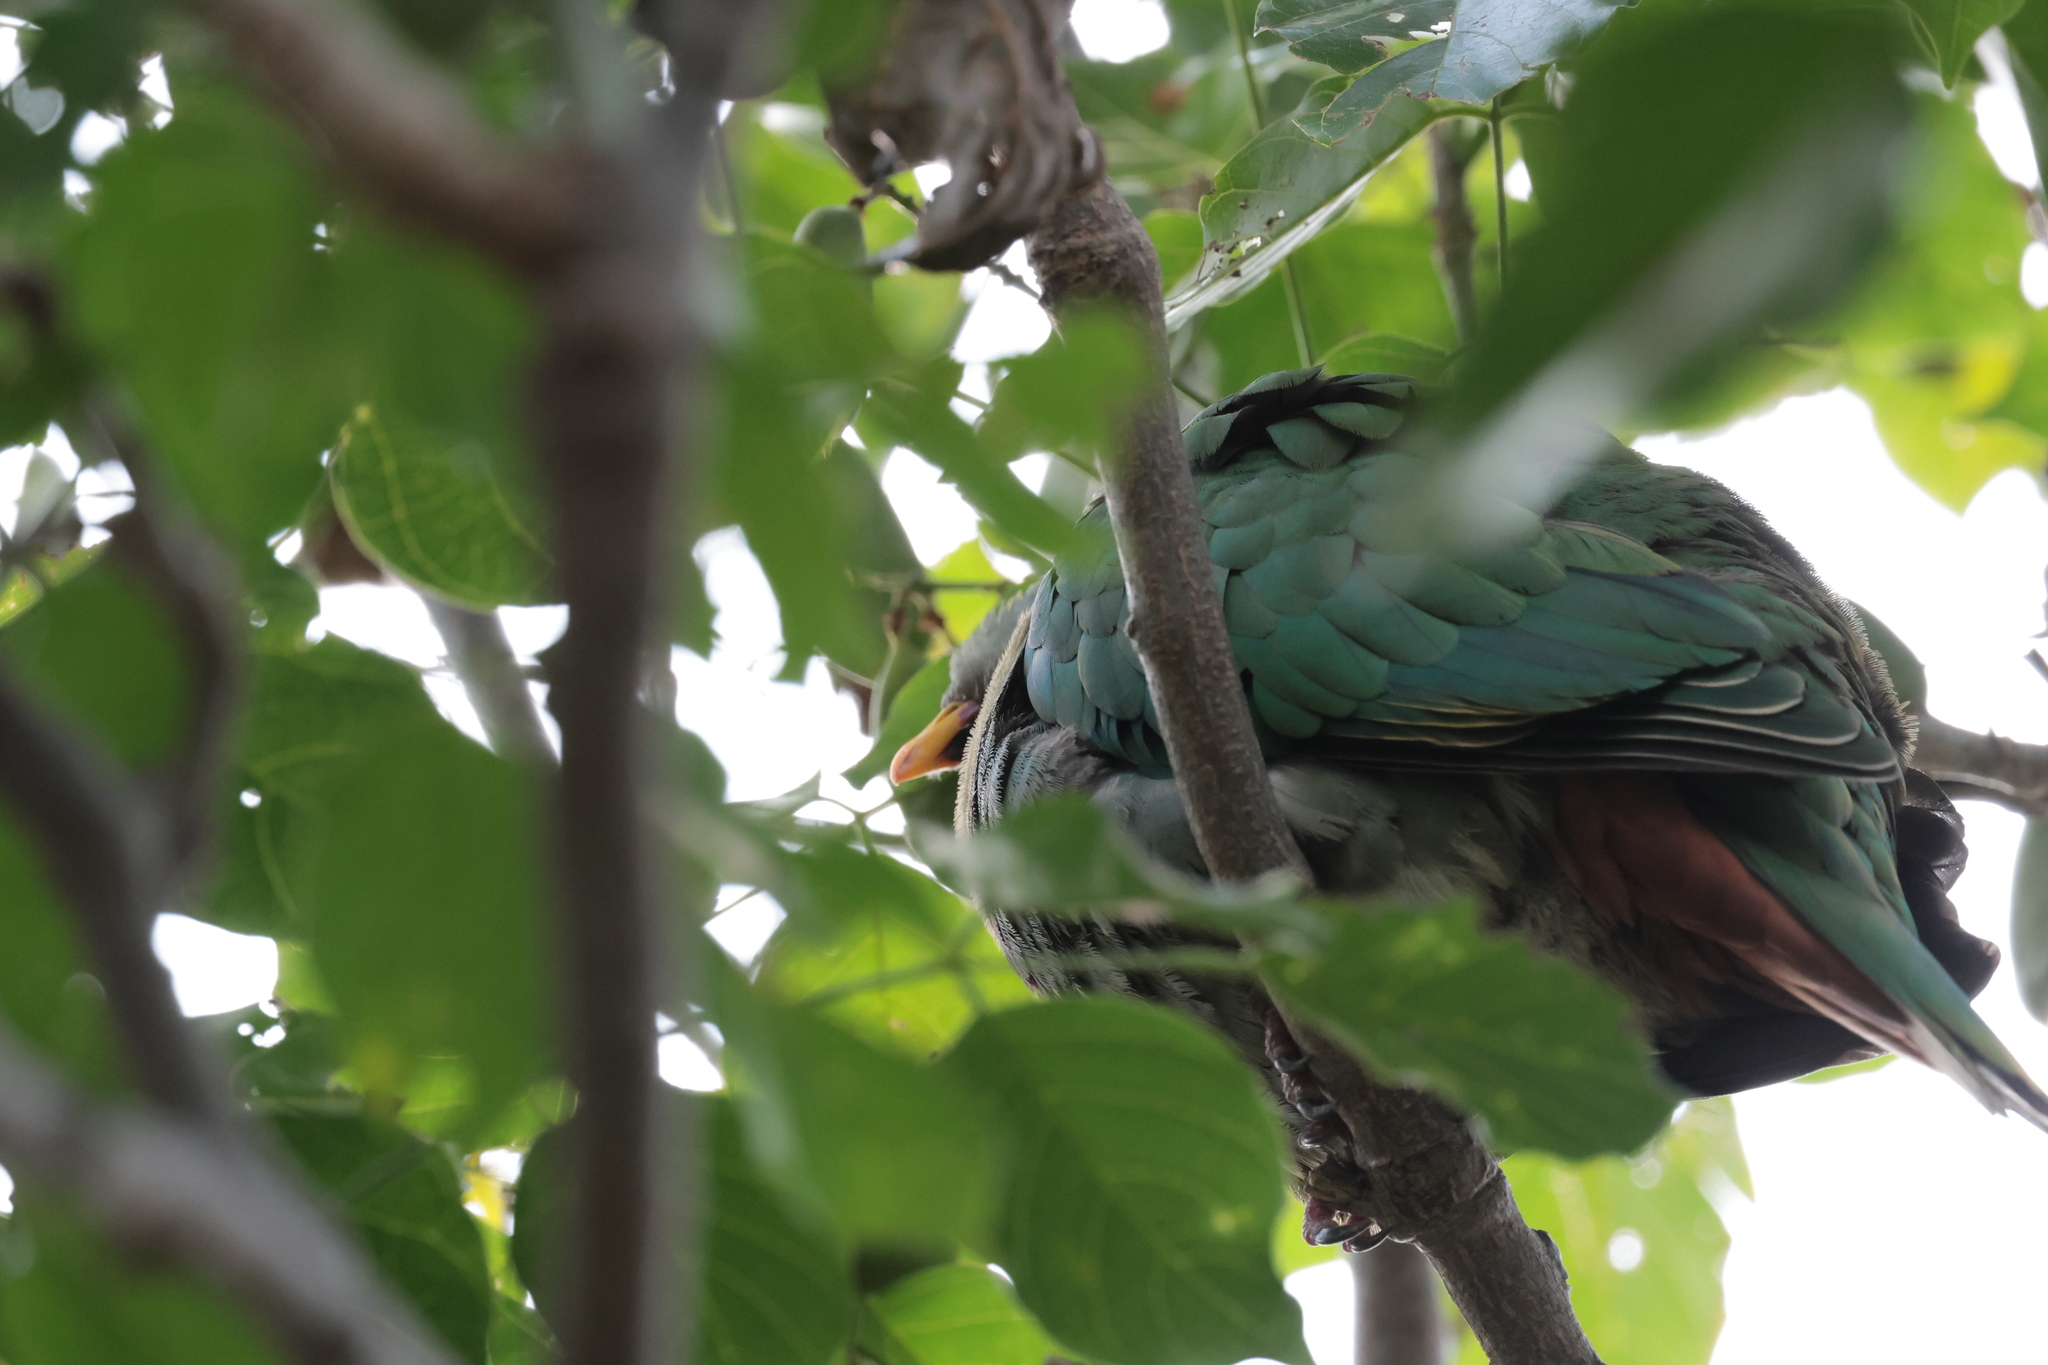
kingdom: Animalia
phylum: Chordata
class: Aves
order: Columbiformes
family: Columbidae
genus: Ptilinopus
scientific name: Ptilinopus leclancheri
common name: Black-chinned fruit dove
